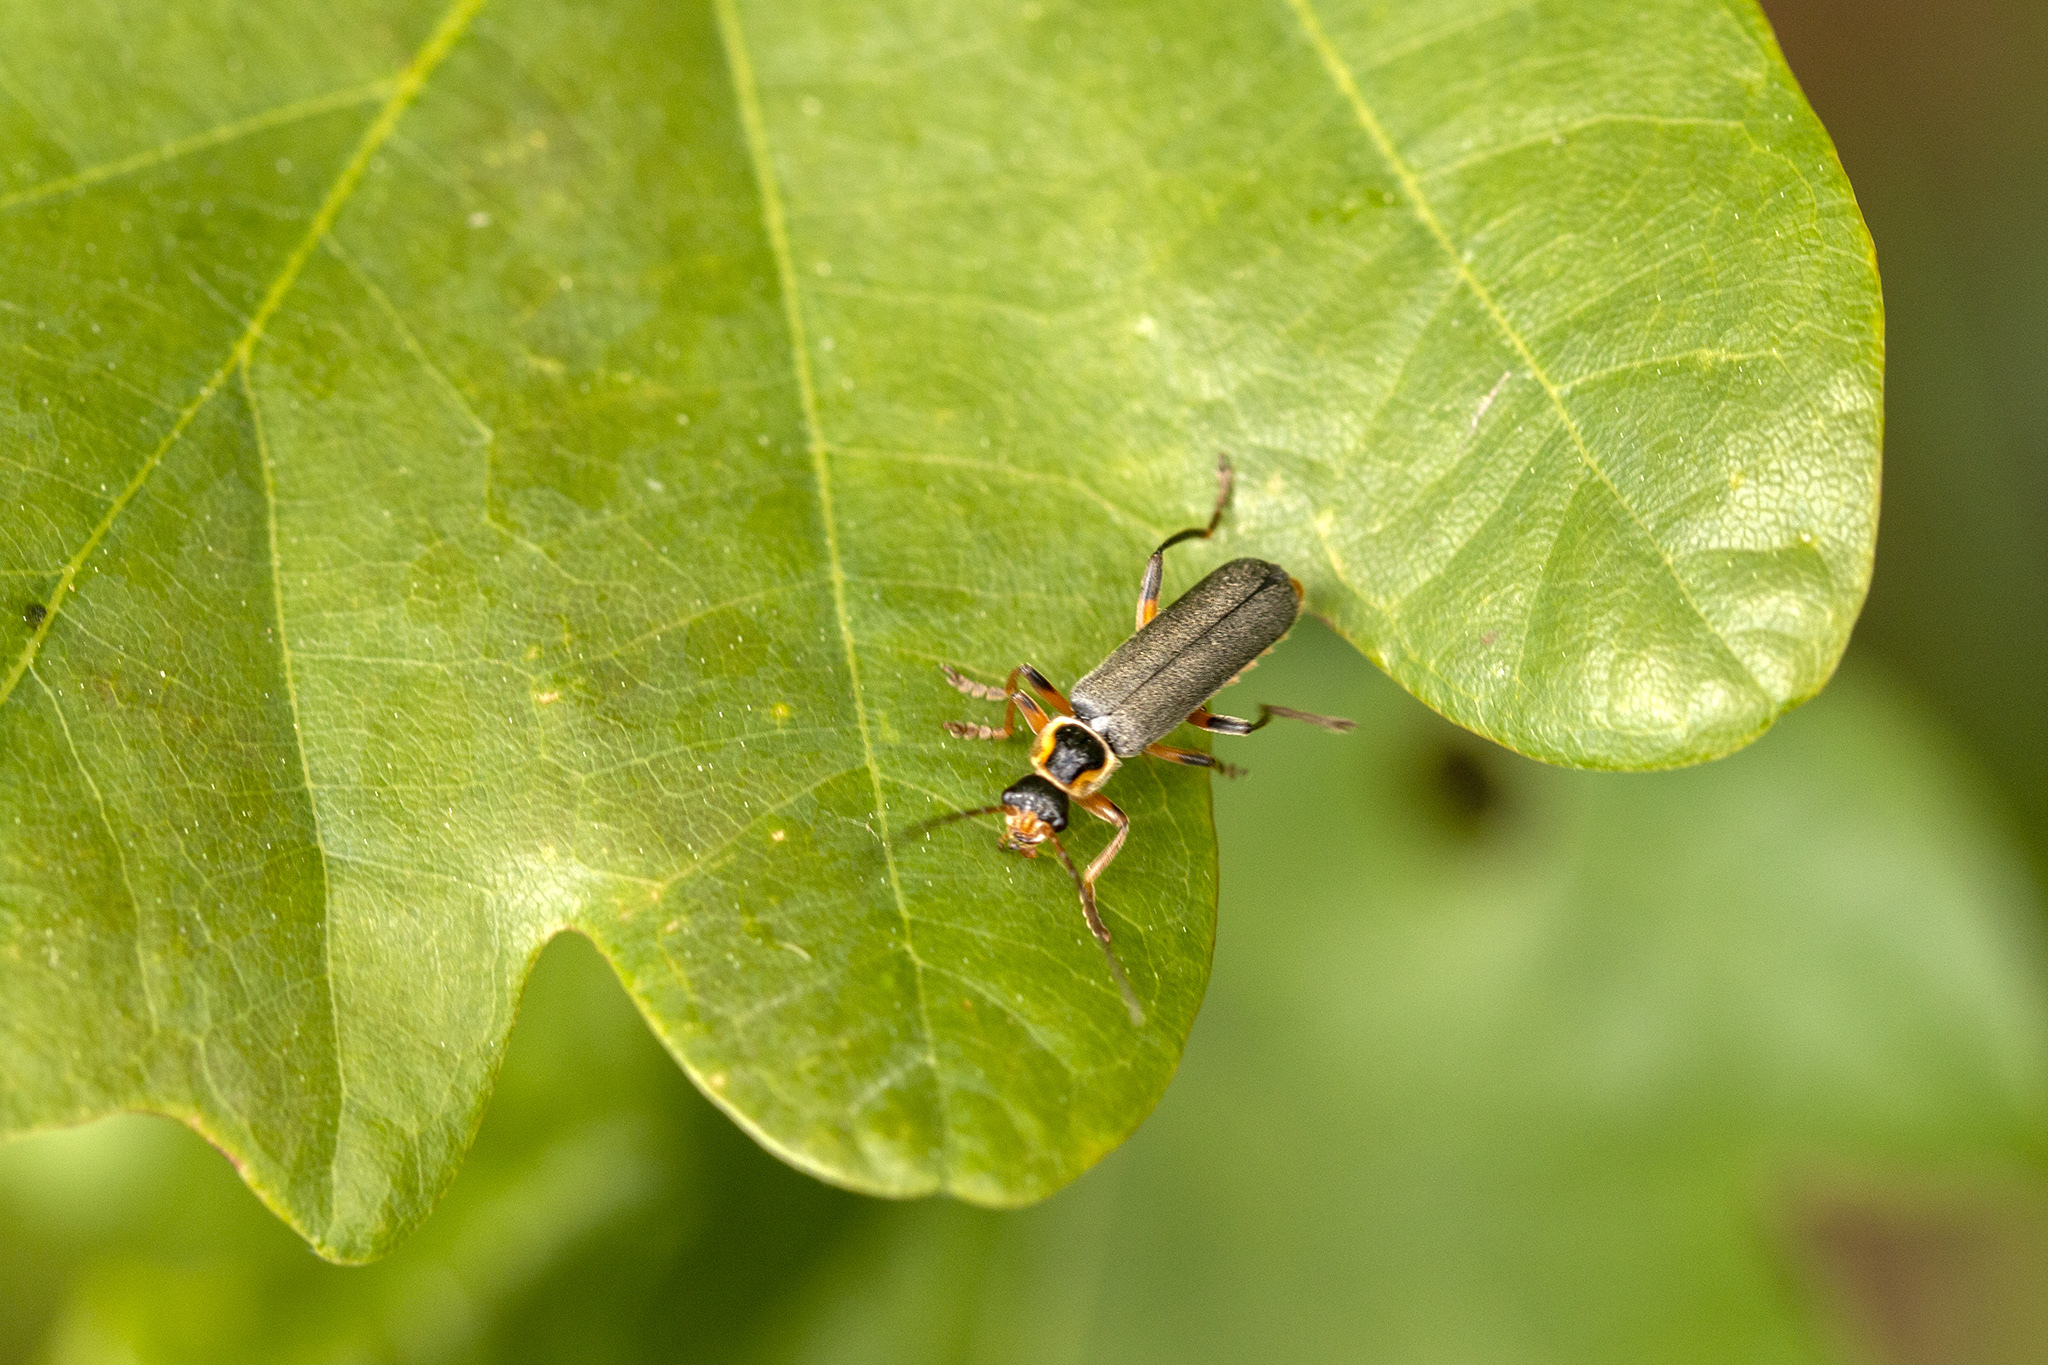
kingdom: Animalia
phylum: Arthropoda
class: Insecta
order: Coleoptera
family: Cantharidae
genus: Cantharis
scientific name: Cantharis nigricans
